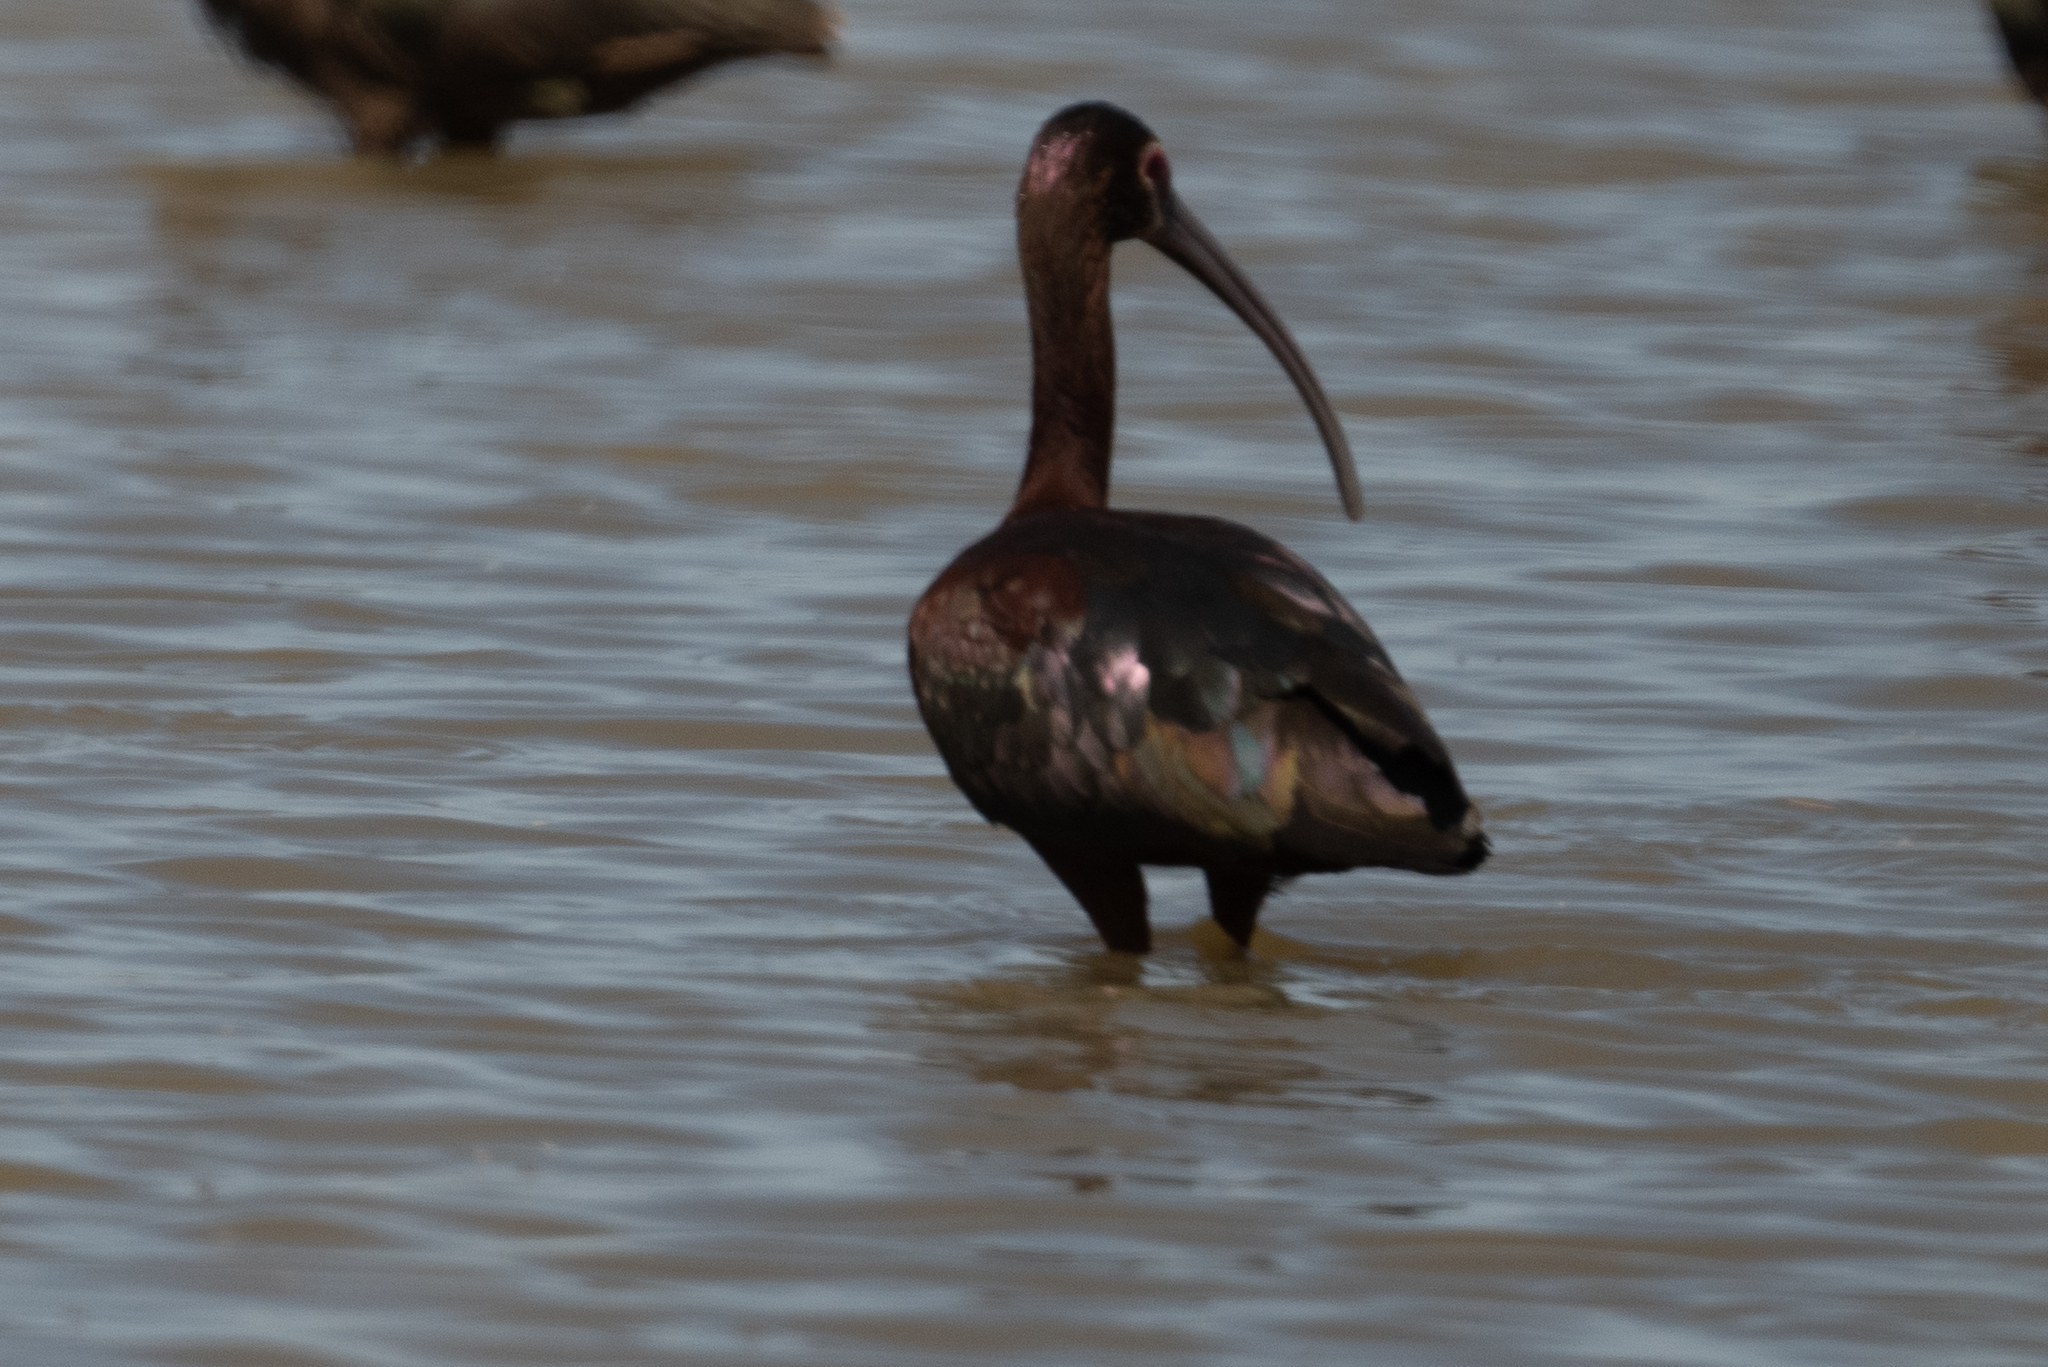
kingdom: Animalia
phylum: Chordata
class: Aves
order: Pelecaniformes
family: Threskiornithidae
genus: Plegadis
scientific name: Plegadis chihi
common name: White-faced ibis
